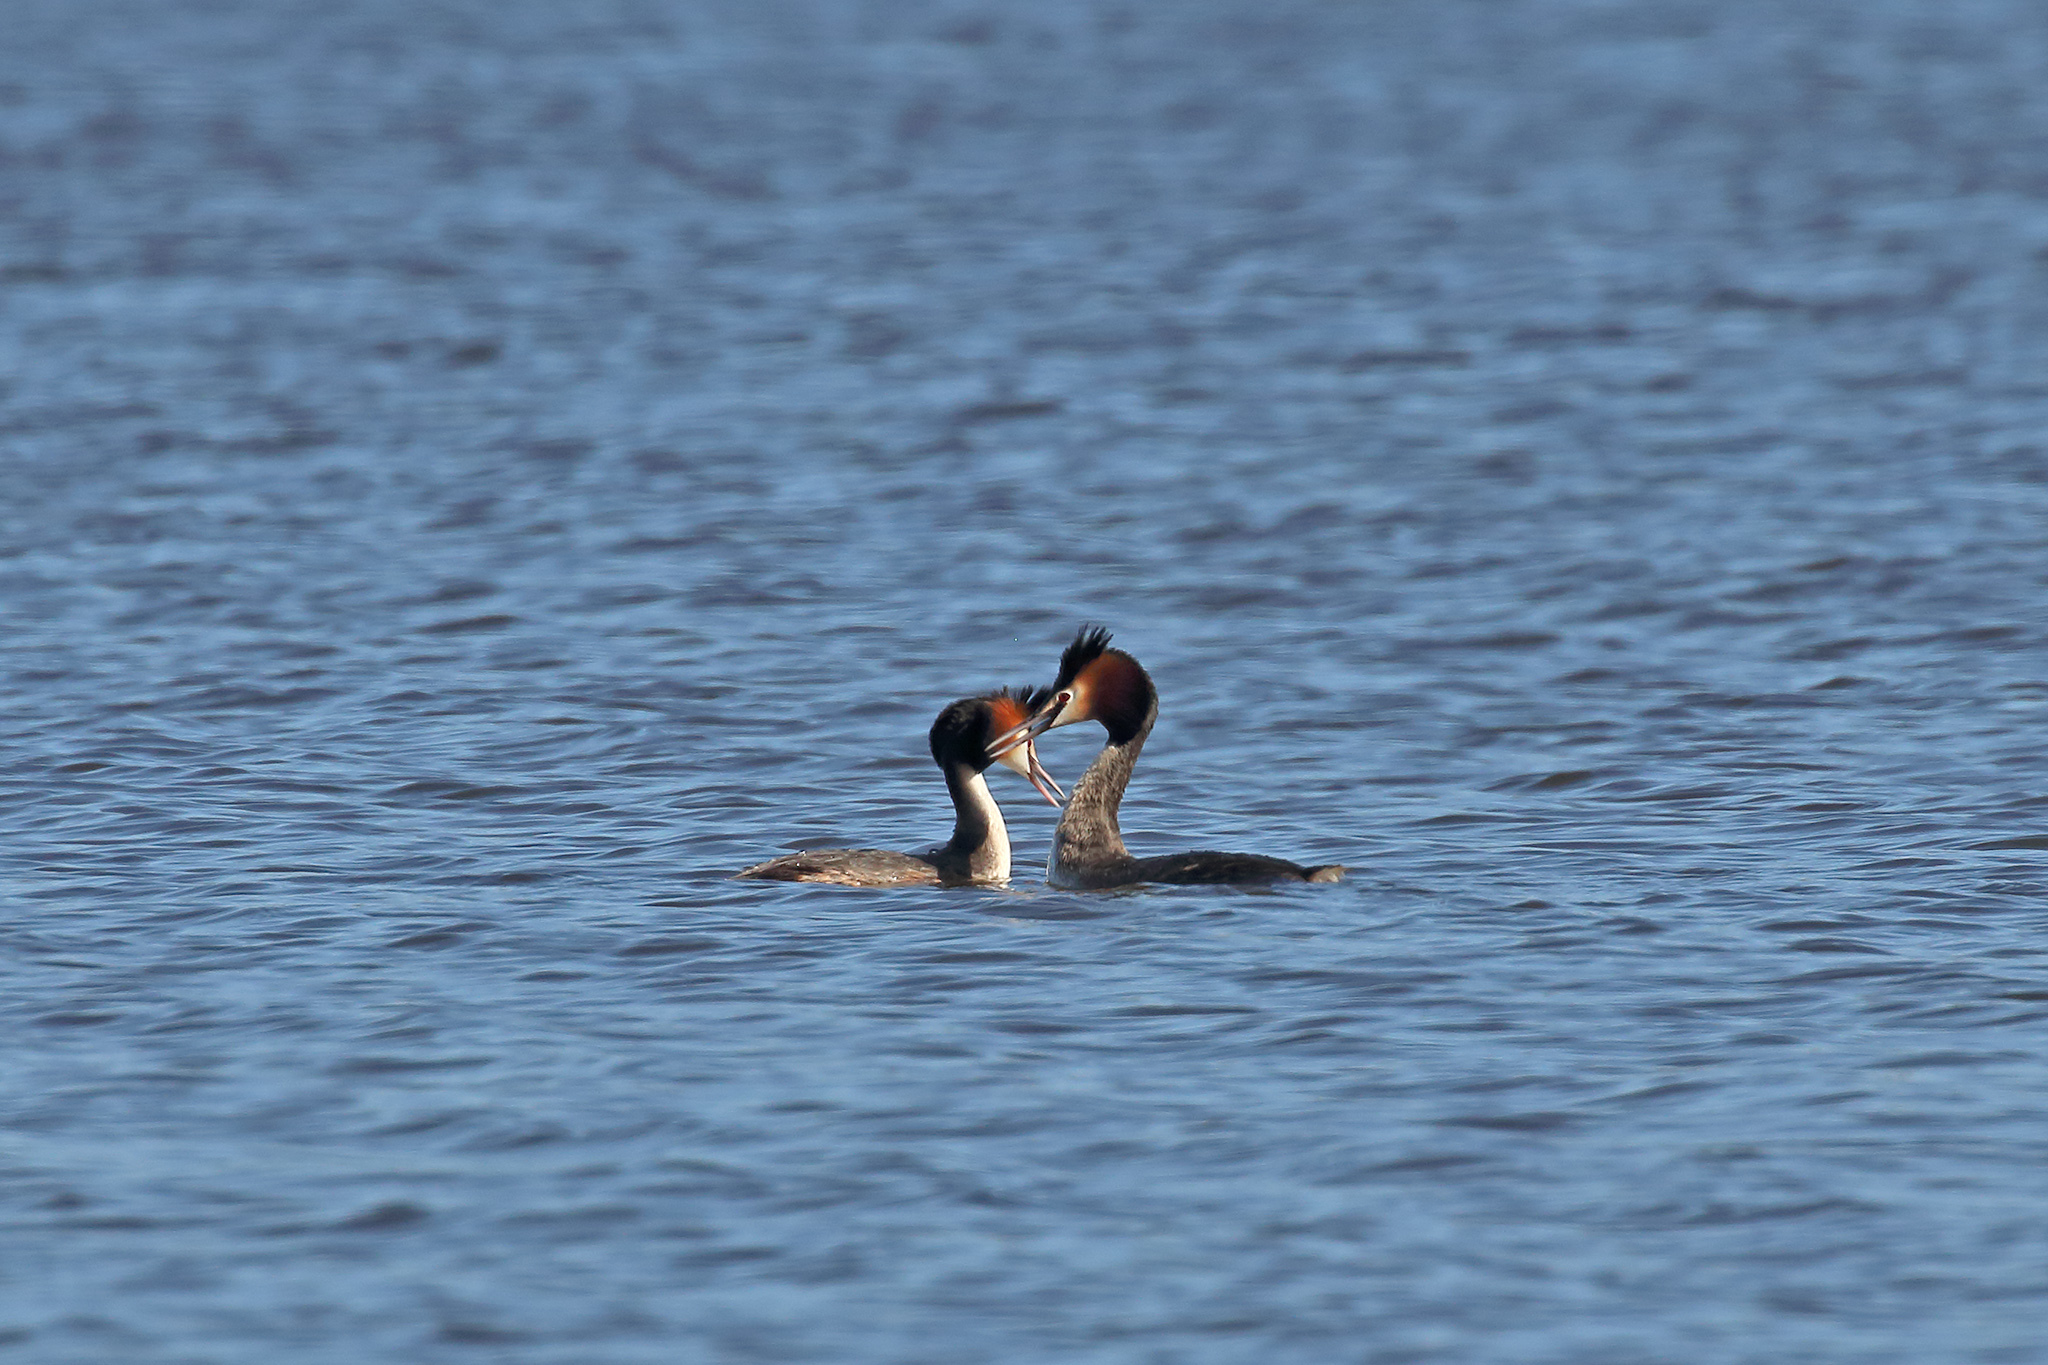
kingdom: Animalia
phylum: Chordata
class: Aves
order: Podicipediformes
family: Podicipedidae
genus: Podiceps
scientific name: Podiceps cristatus
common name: Great crested grebe
